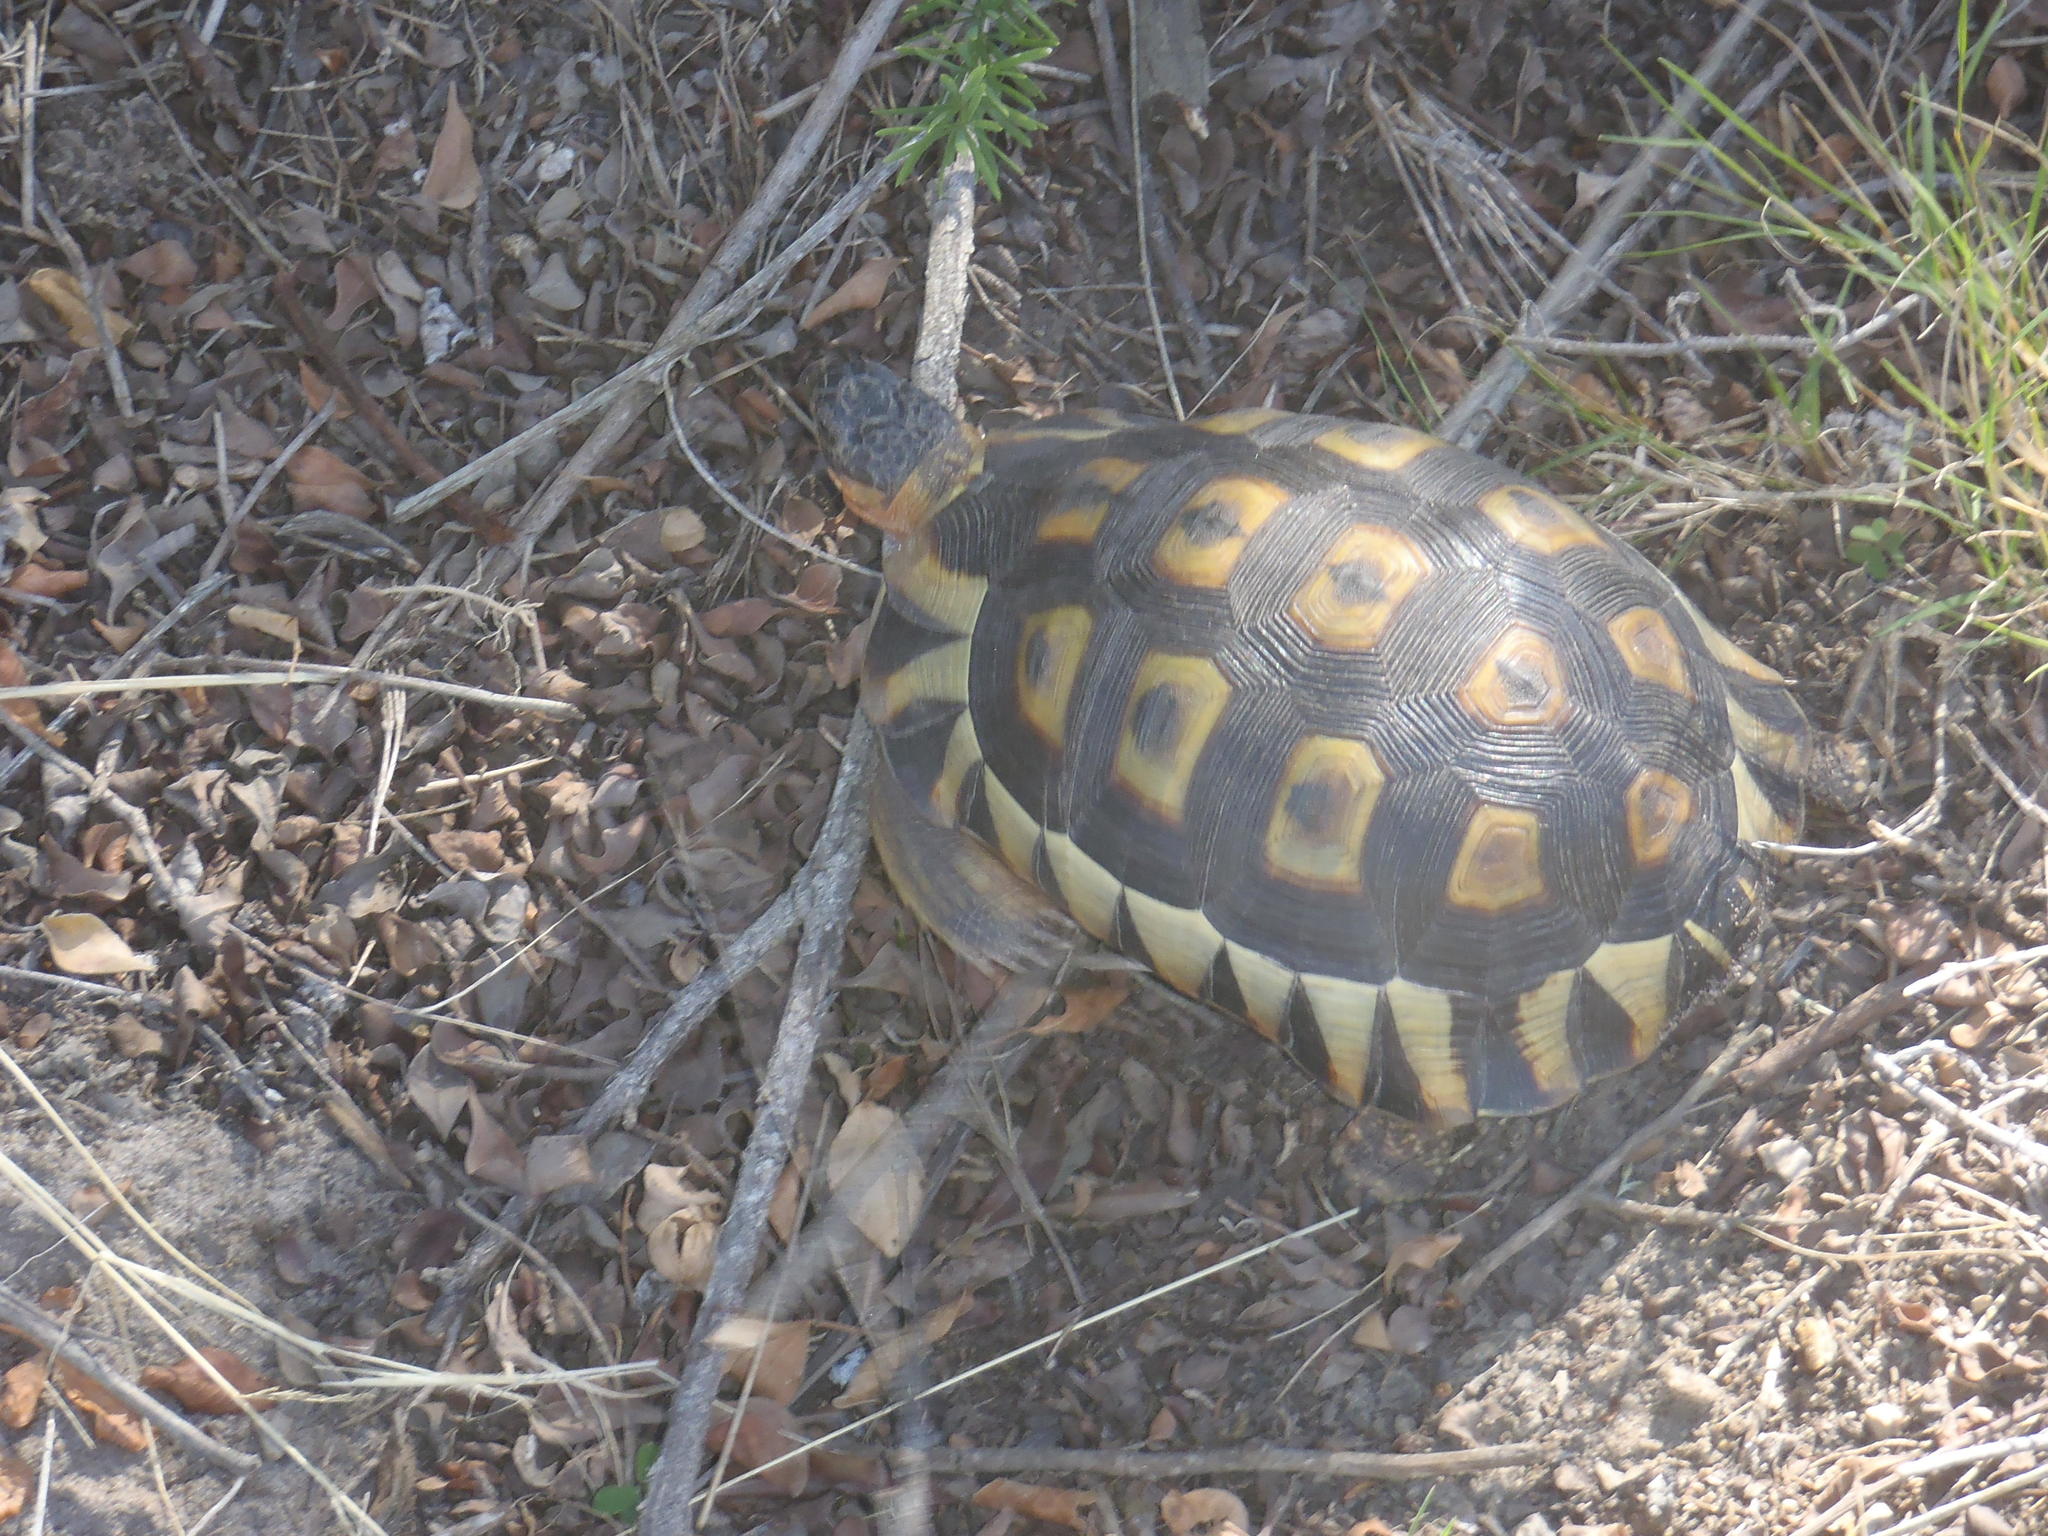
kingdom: Animalia
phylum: Chordata
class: Testudines
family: Testudinidae
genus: Chersina
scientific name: Chersina angulata
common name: South african bowsprit tortoise
